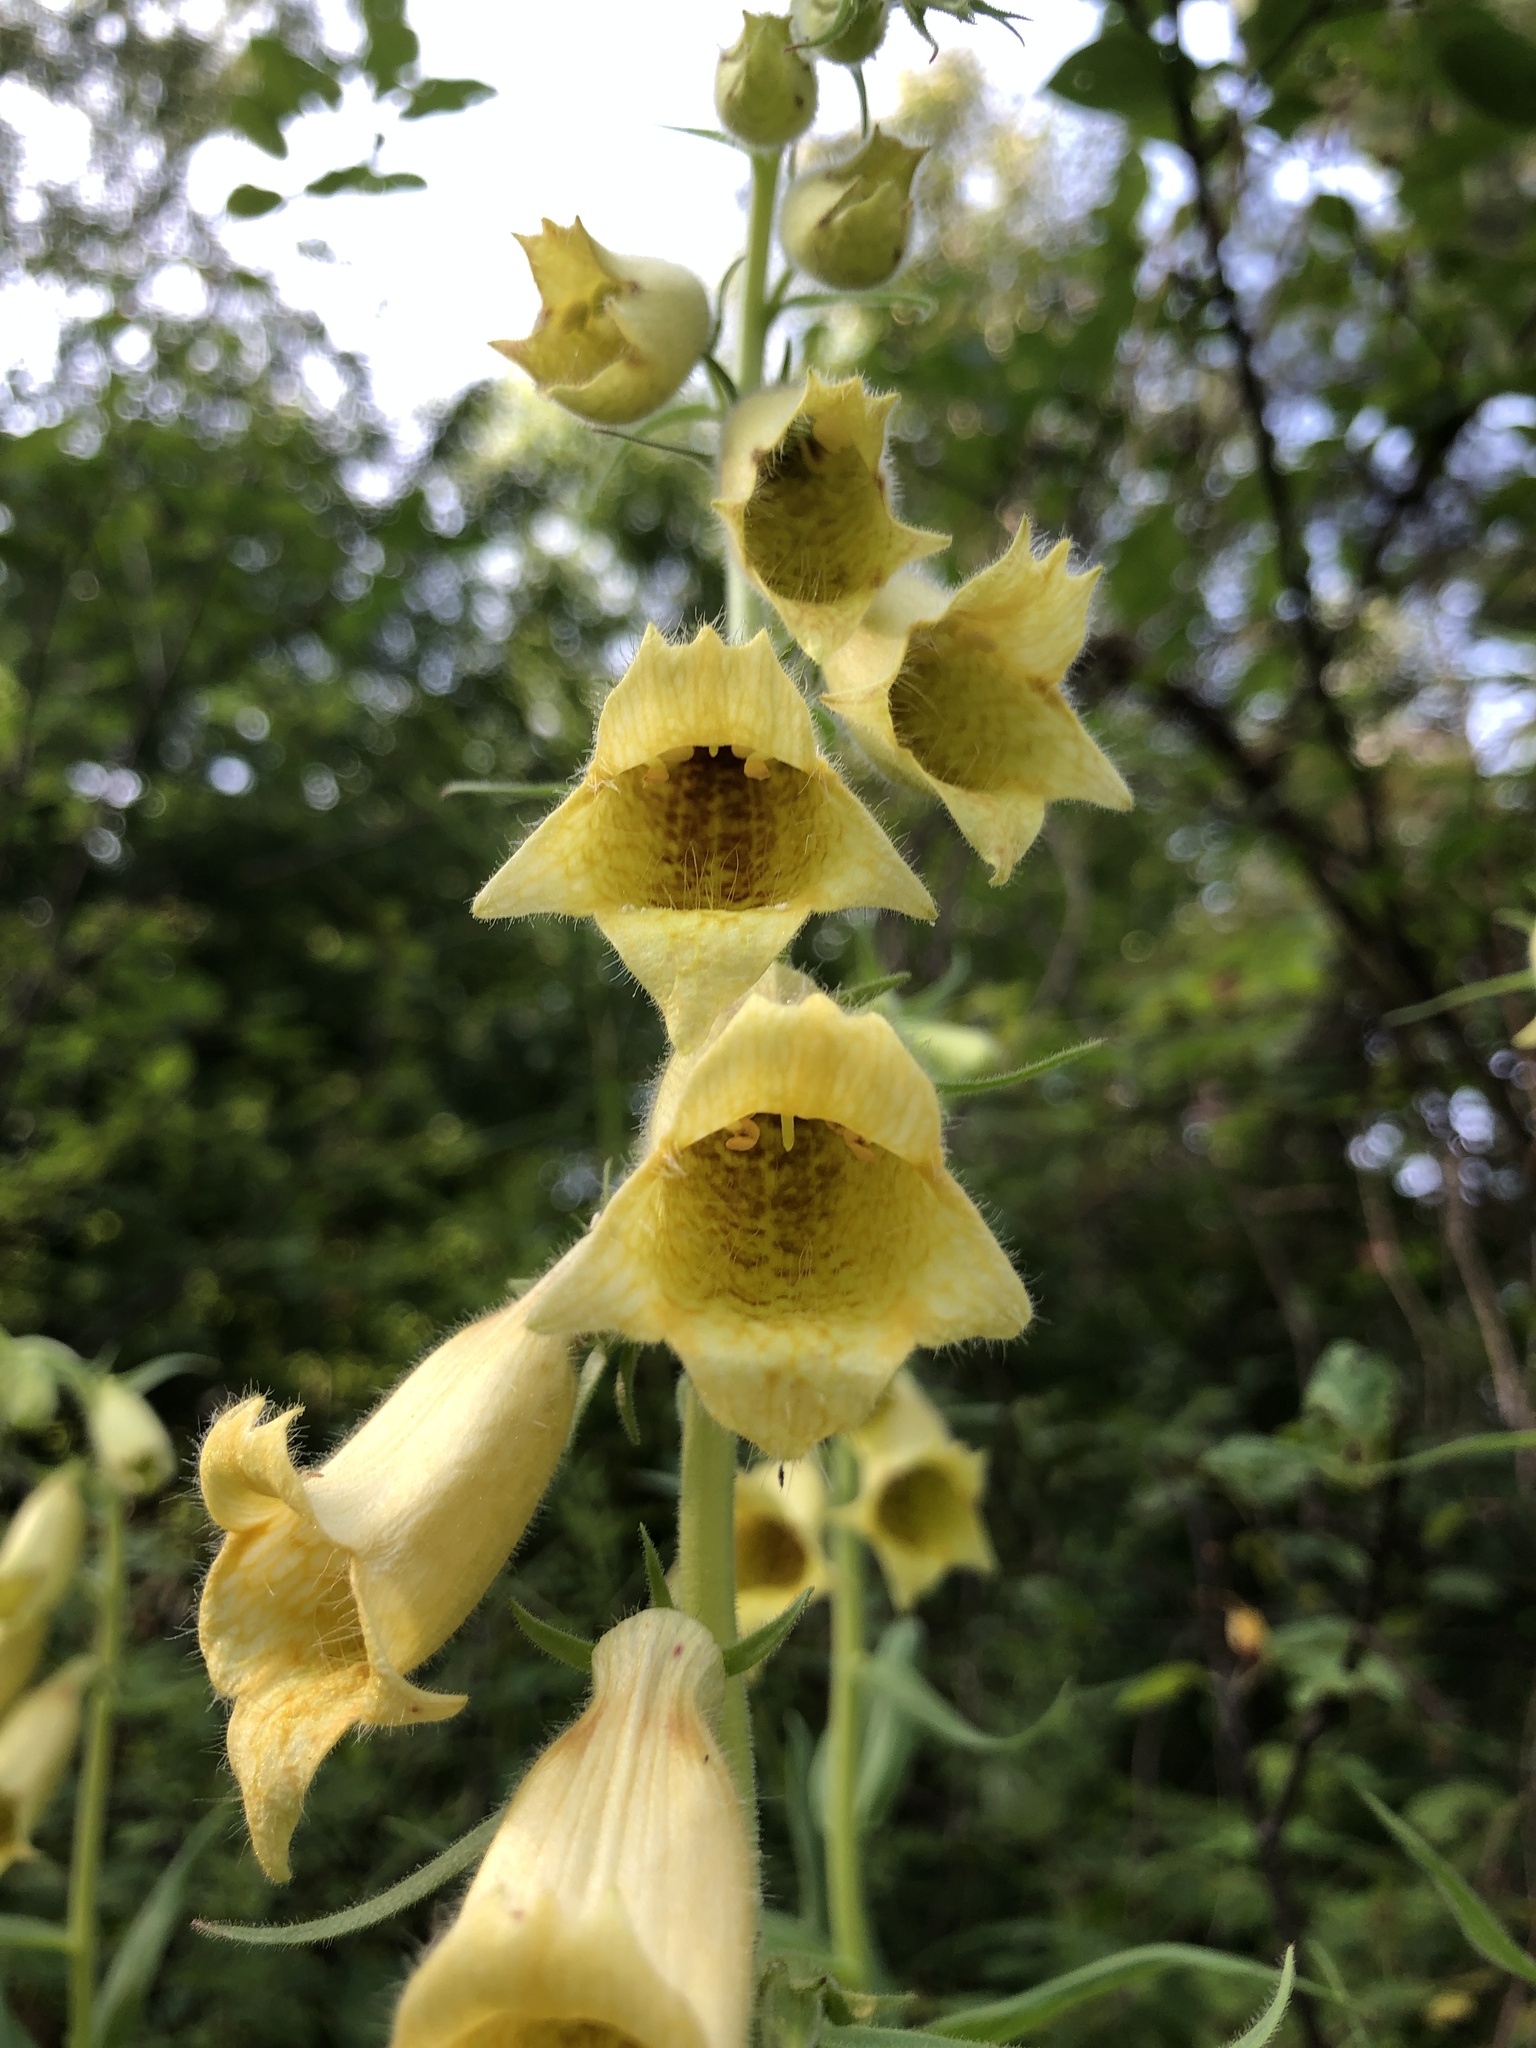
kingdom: Plantae
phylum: Tracheophyta
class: Magnoliopsida
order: Lamiales
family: Plantaginaceae
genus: Digitalis
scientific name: Digitalis grandiflora
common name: Yellow foxglove
